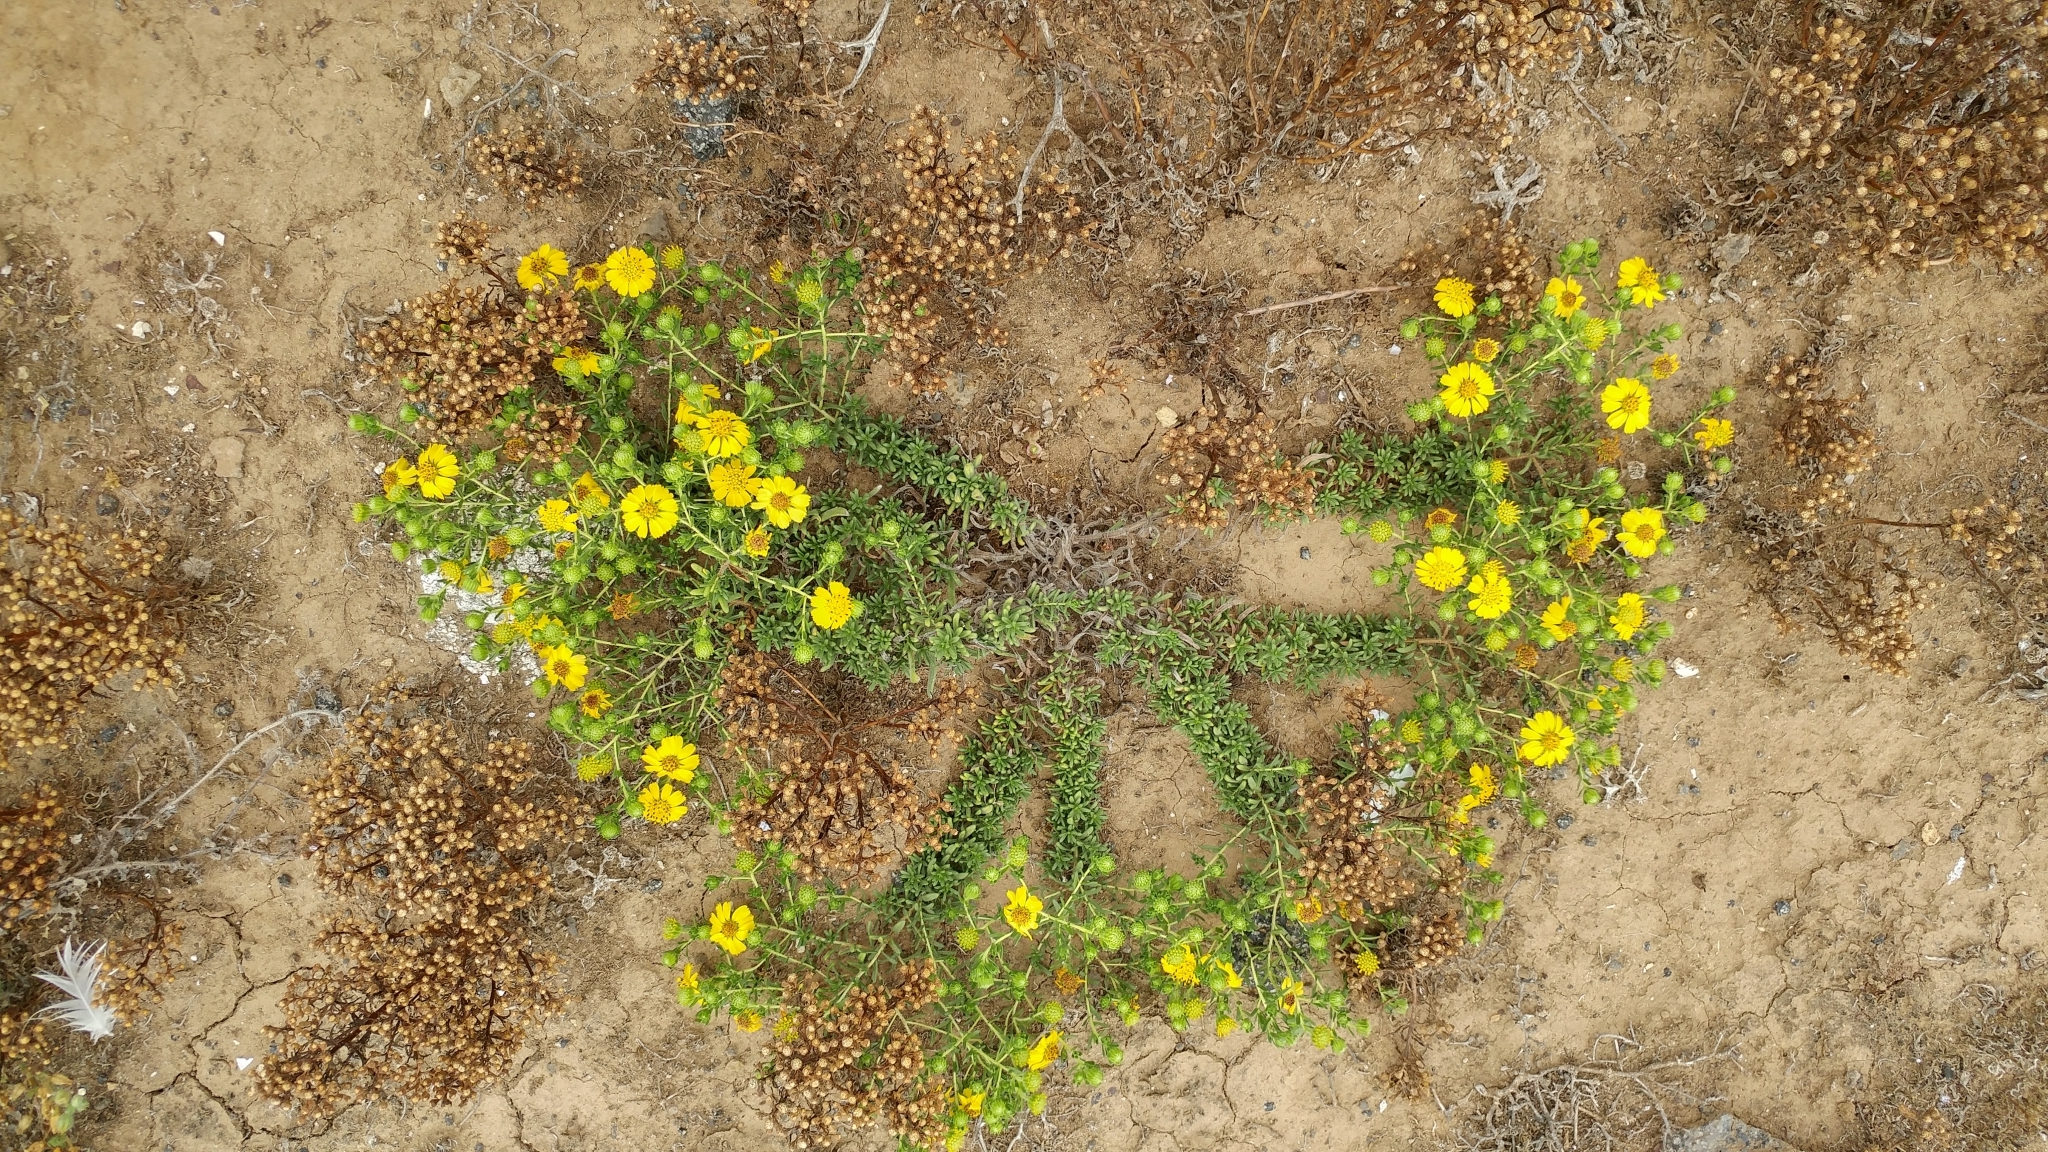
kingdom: Plantae
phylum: Tracheophyta
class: Magnoliopsida
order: Asterales
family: Asteraceae
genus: Deinandra
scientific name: Deinandra clementina
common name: Island tarplant
